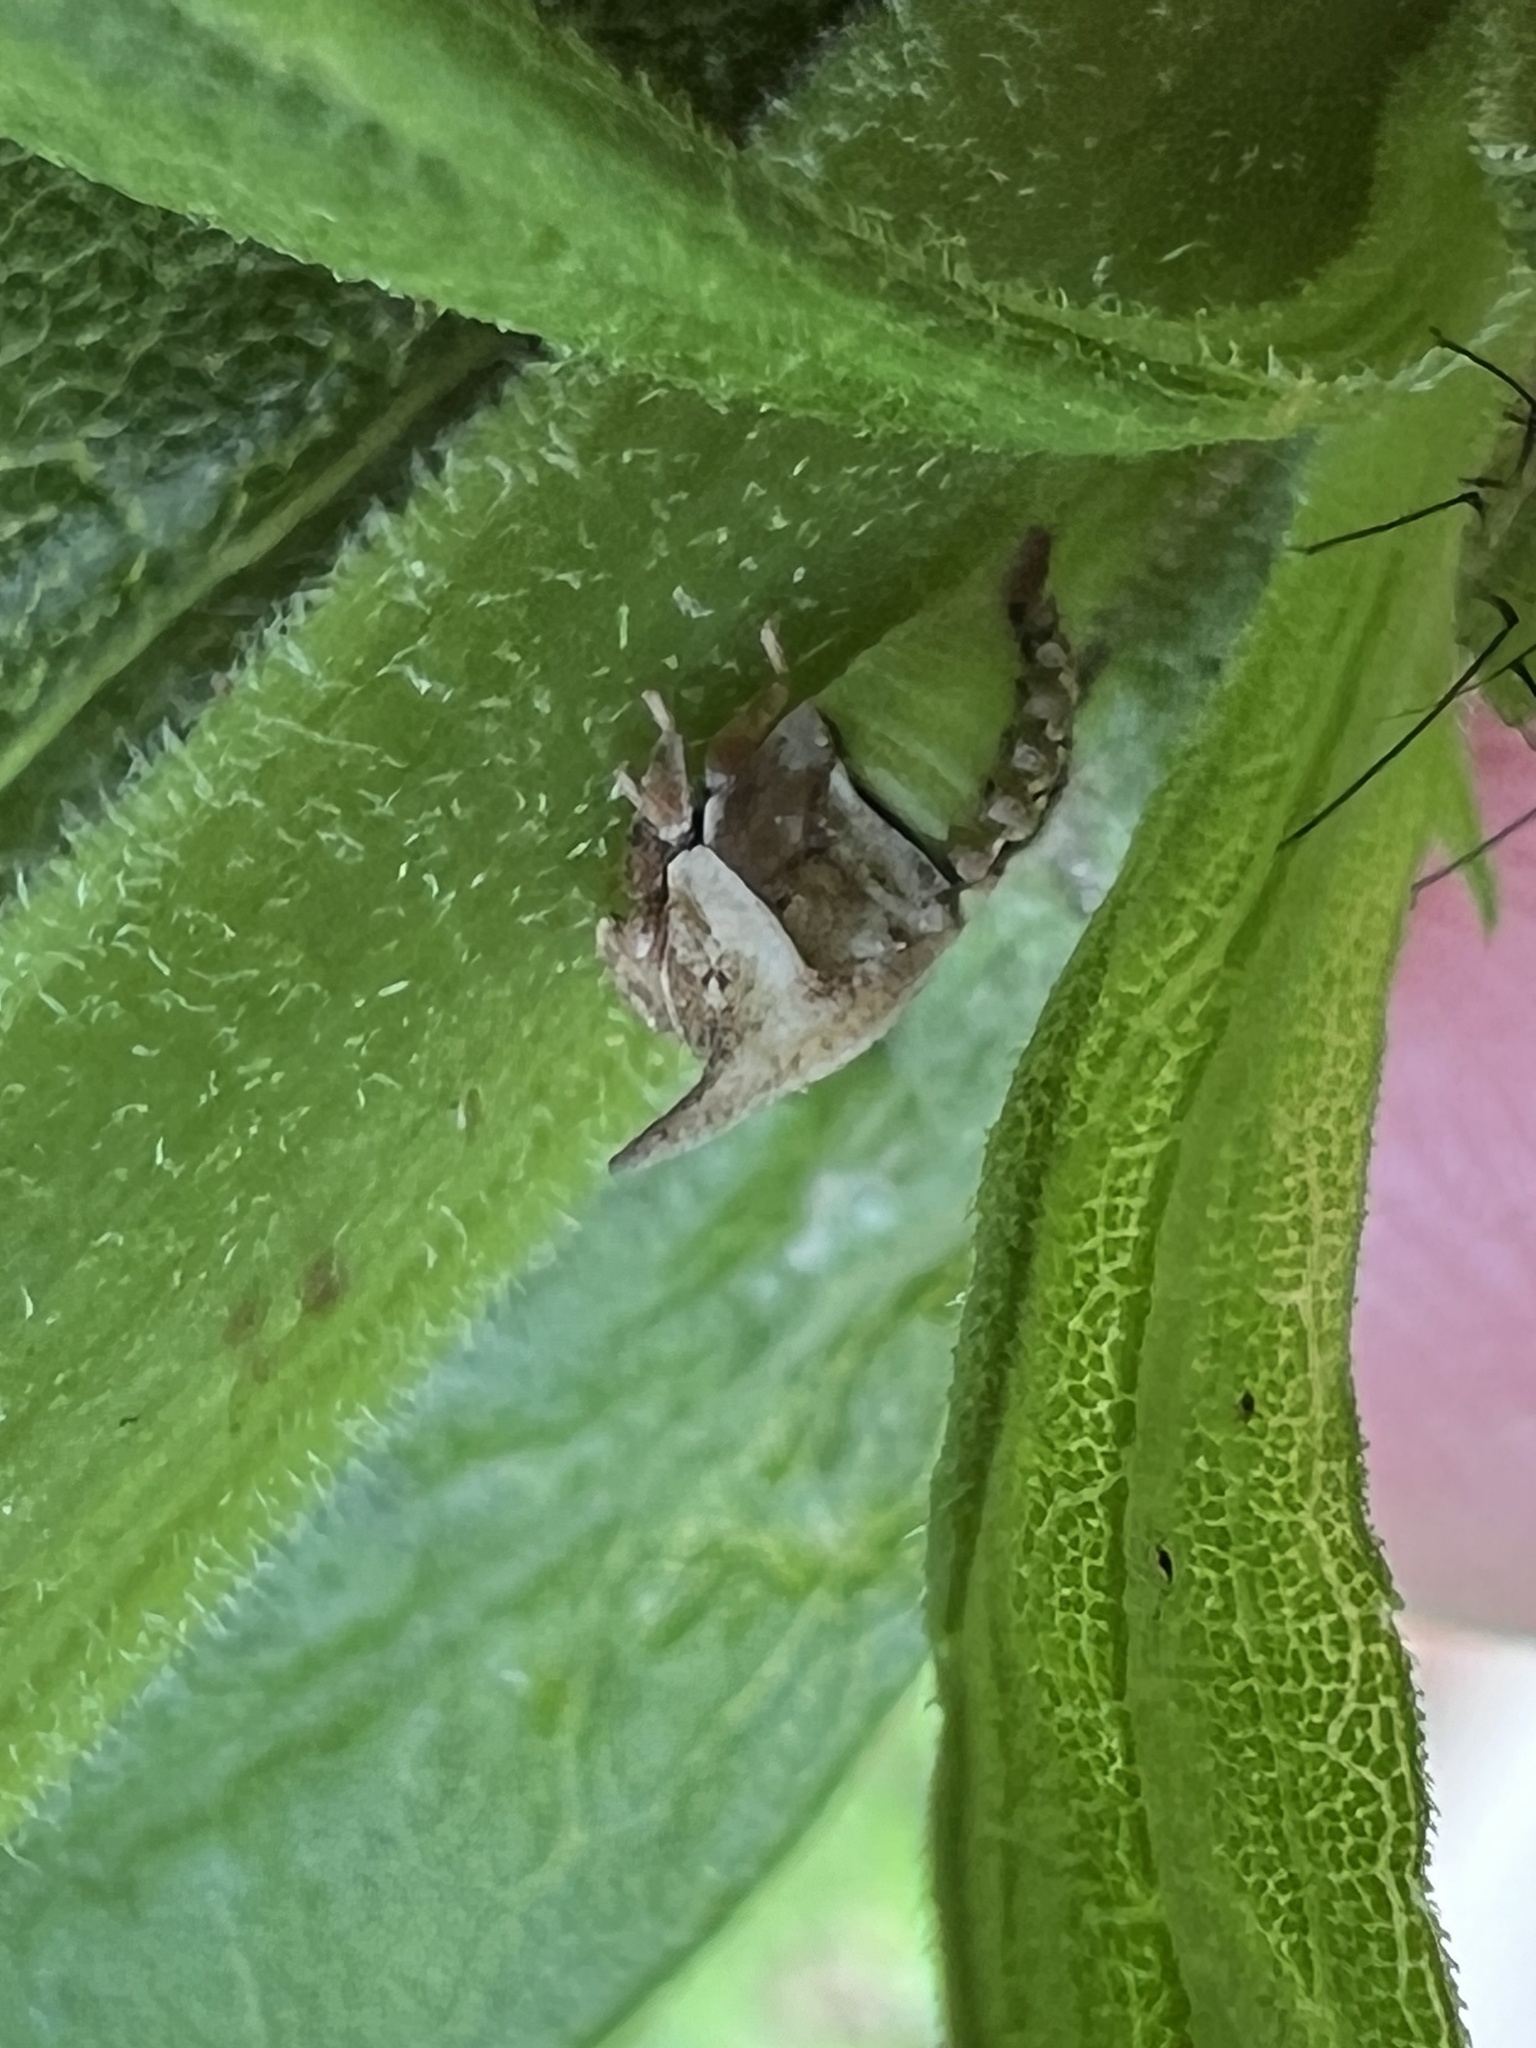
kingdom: Animalia
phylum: Arthropoda
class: Insecta
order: Hemiptera
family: Membracidae
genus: Enchenopa
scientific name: Enchenopa latipes
